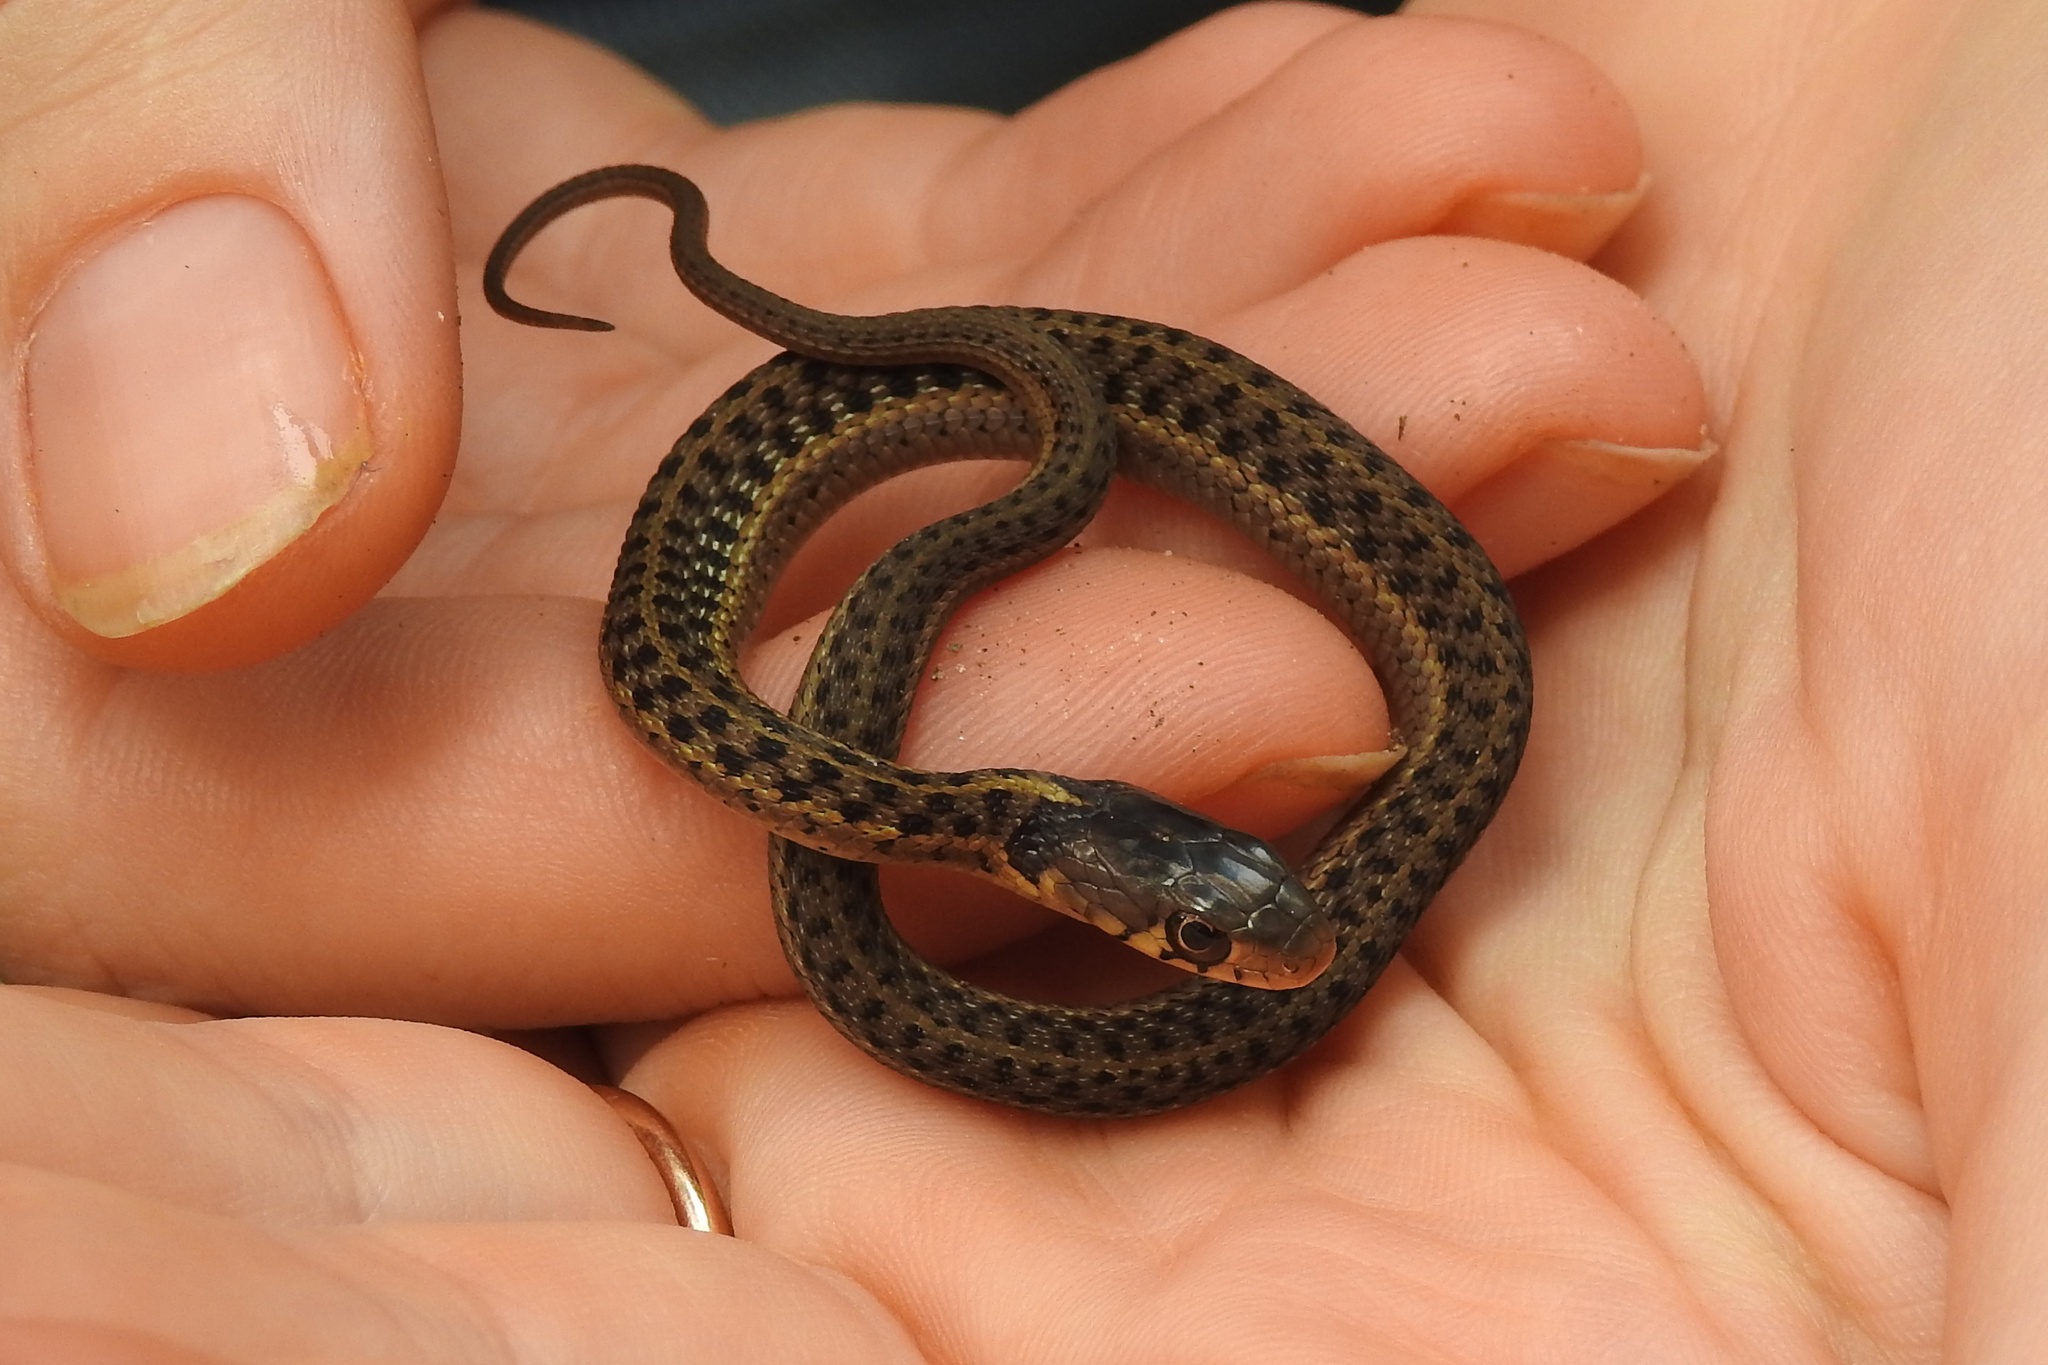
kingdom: Animalia
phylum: Chordata
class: Squamata
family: Colubridae
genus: Thamnophis
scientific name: Thamnophis sirtalis
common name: Common garter snake
